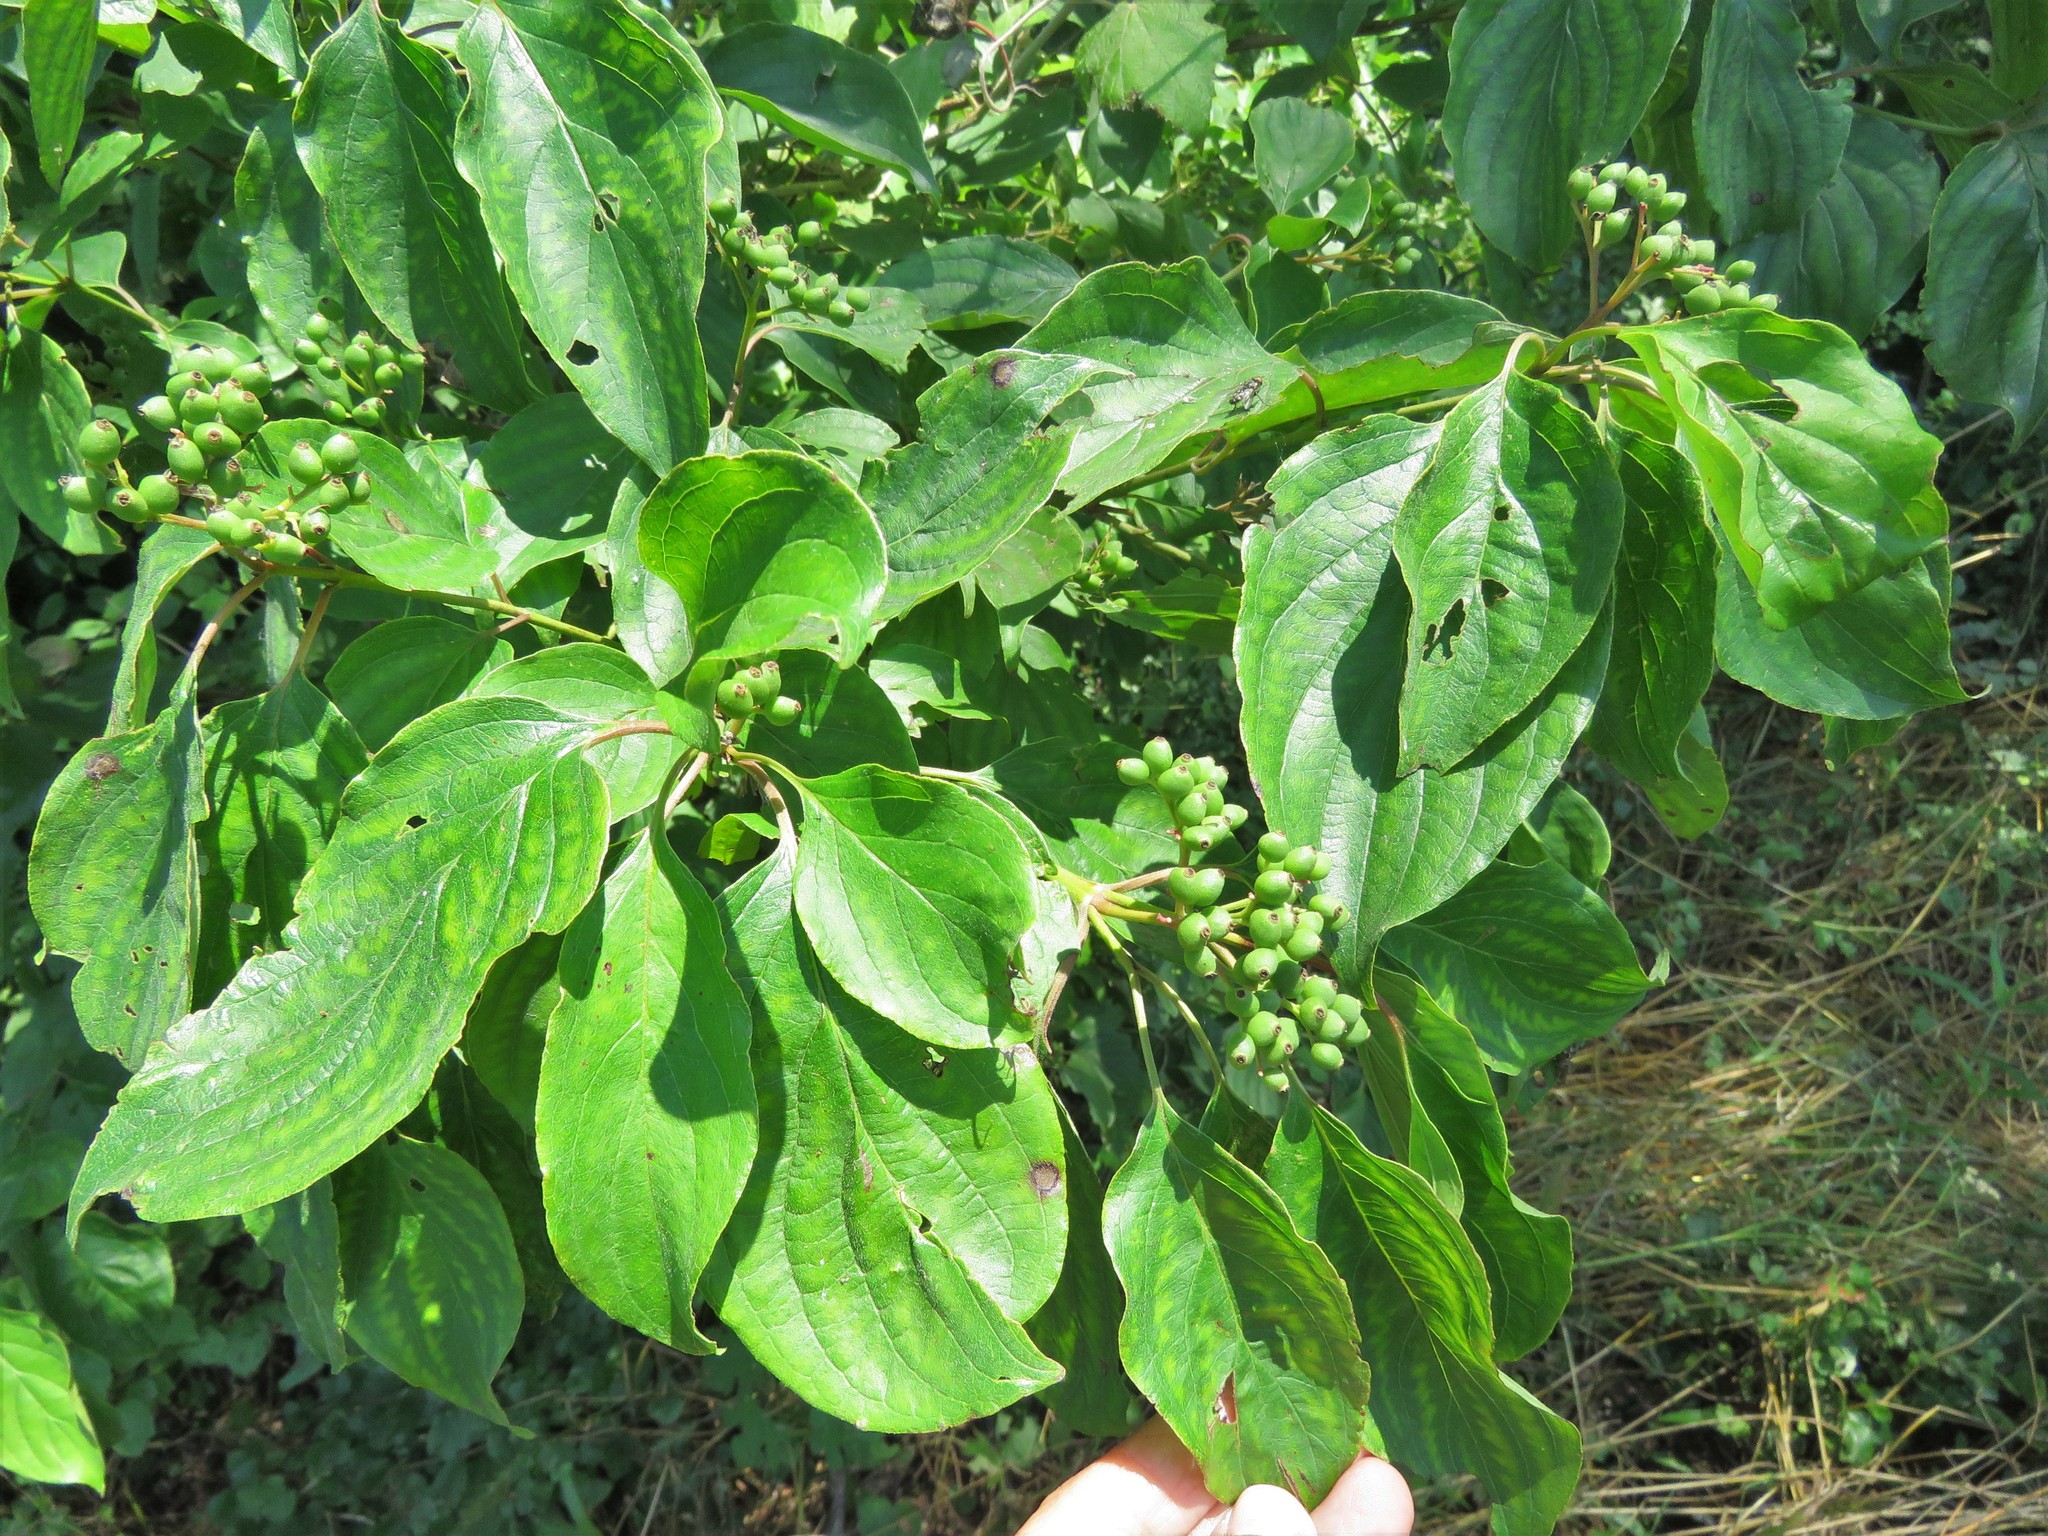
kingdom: Plantae
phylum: Tracheophyta
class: Magnoliopsida
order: Cornales
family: Cornaceae
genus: Cornus
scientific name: Cornus drummondii
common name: Rough-leaf dogwood
